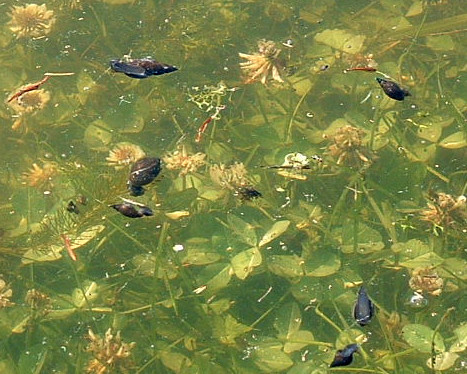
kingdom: Animalia
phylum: Mollusca
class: Gastropoda
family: Lymnaeidae
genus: Ladislavella
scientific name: Ladislavella elodes
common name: Marsh pondsnail
